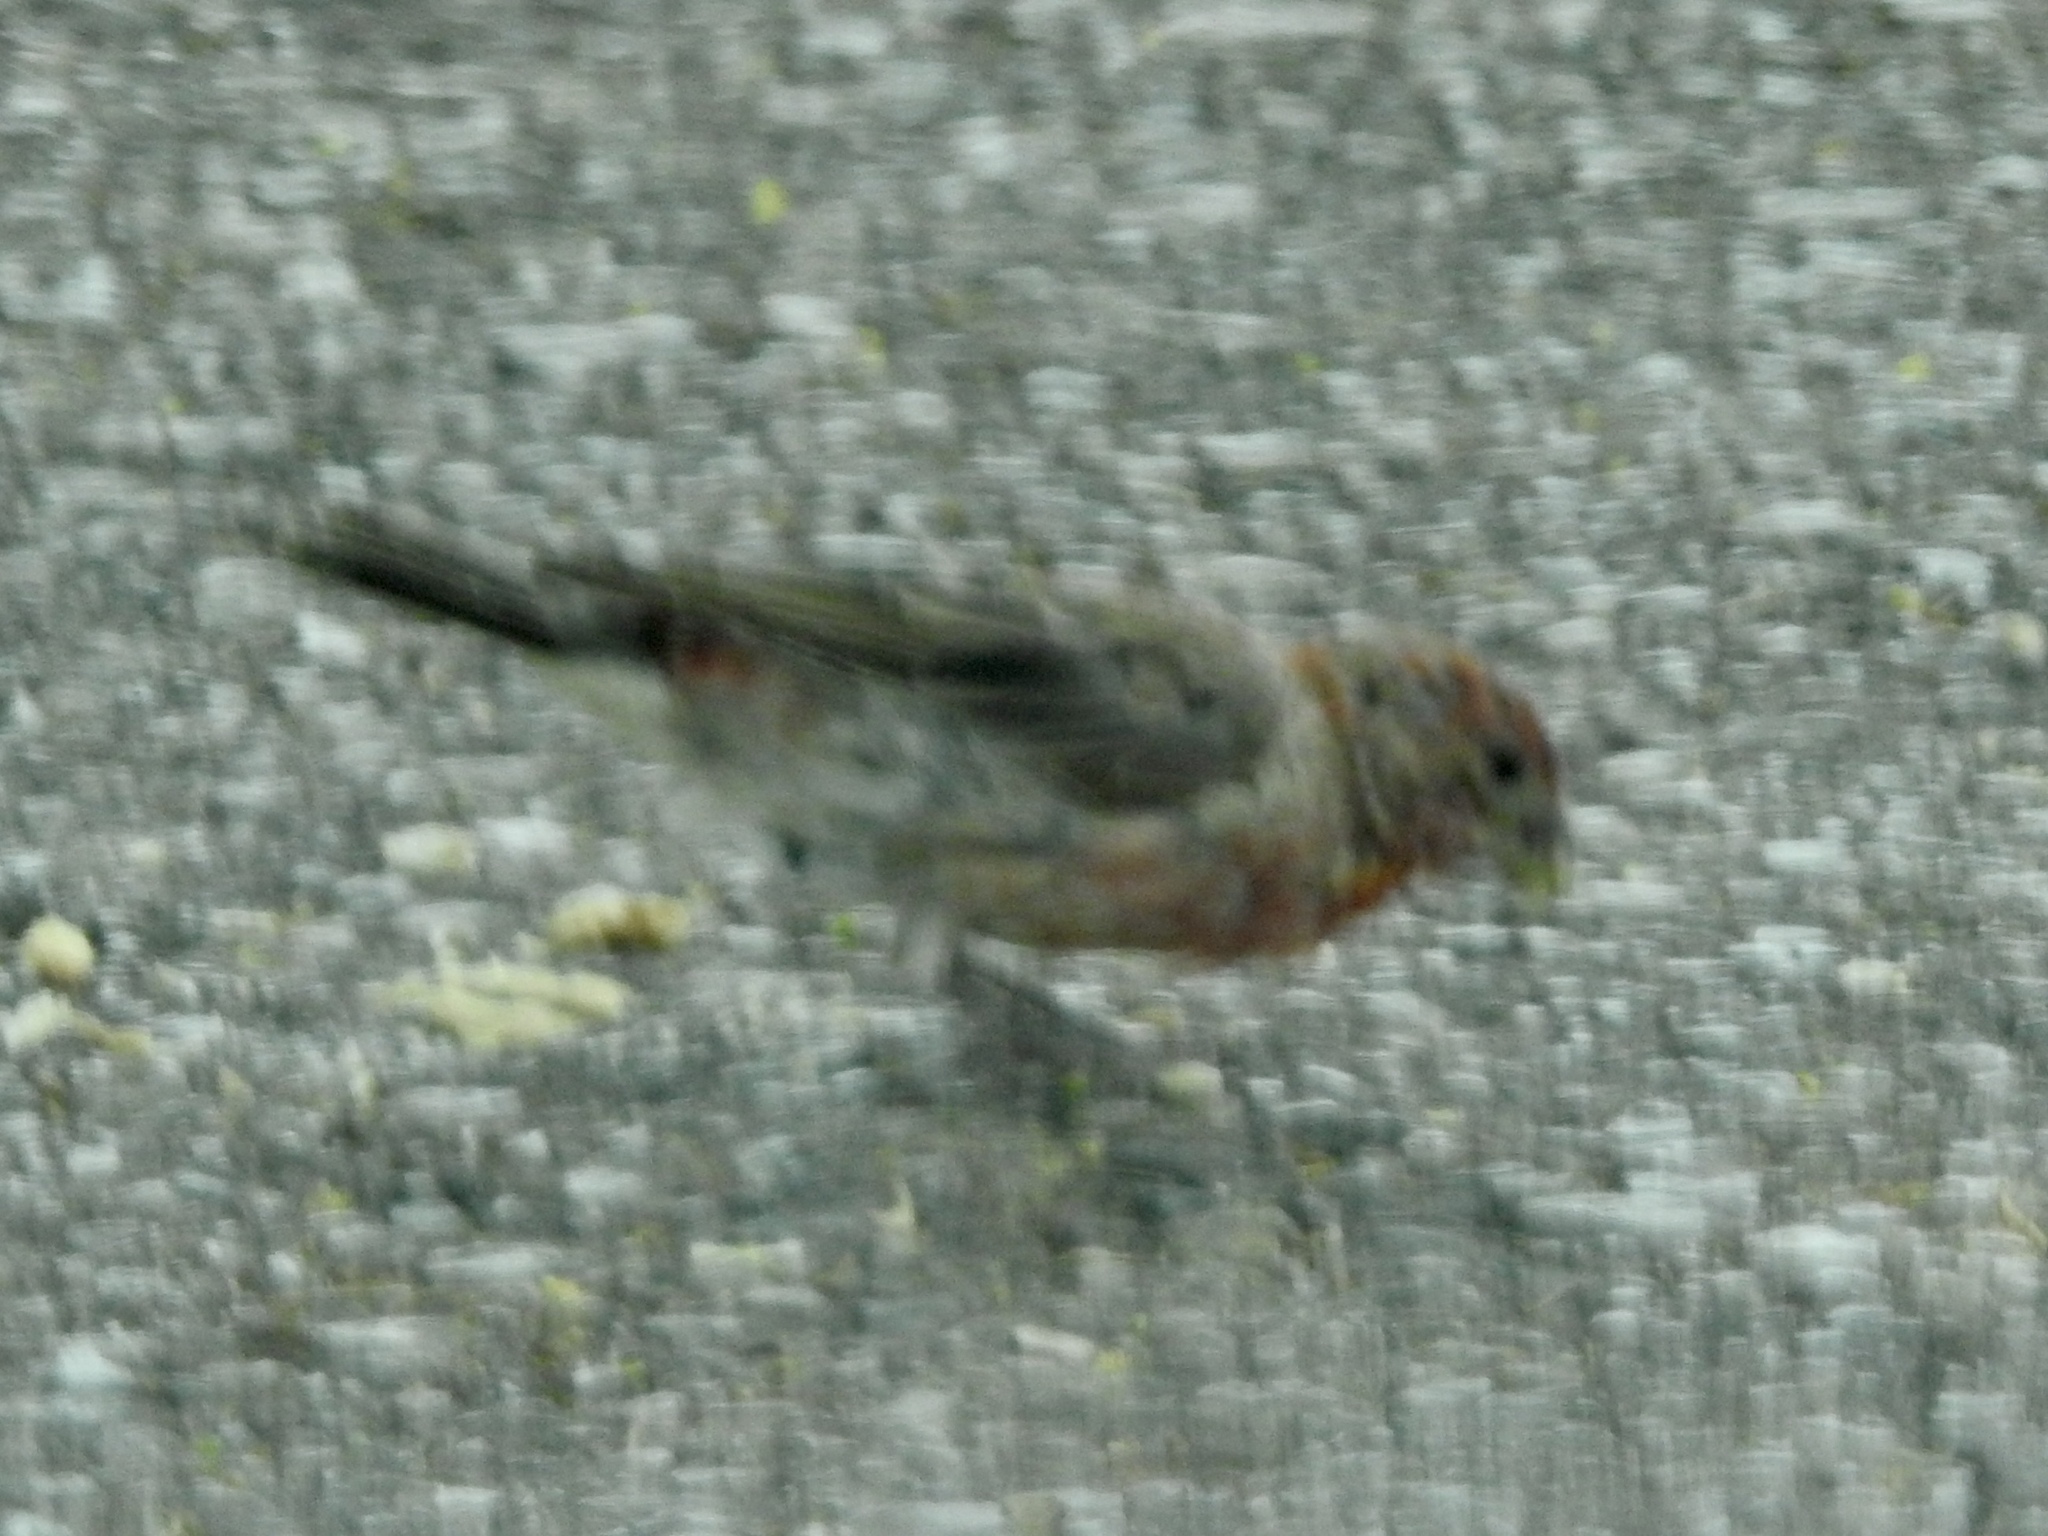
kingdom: Animalia
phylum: Chordata
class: Aves
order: Passeriformes
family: Fringillidae
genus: Haemorhous
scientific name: Haemorhous mexicanus
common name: House finch
